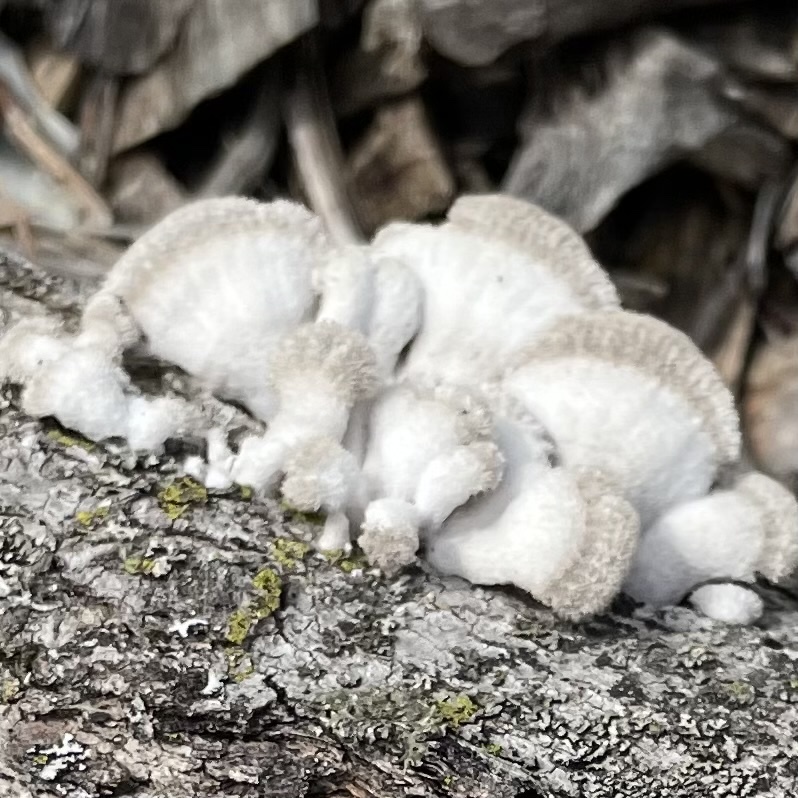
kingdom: Fungi
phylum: Basidiomycota
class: Agaricomycetes
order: Agaricales
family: Schizophyllaceae
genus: Schizophyllum
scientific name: Schizophyllum commune
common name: Common porecrust
